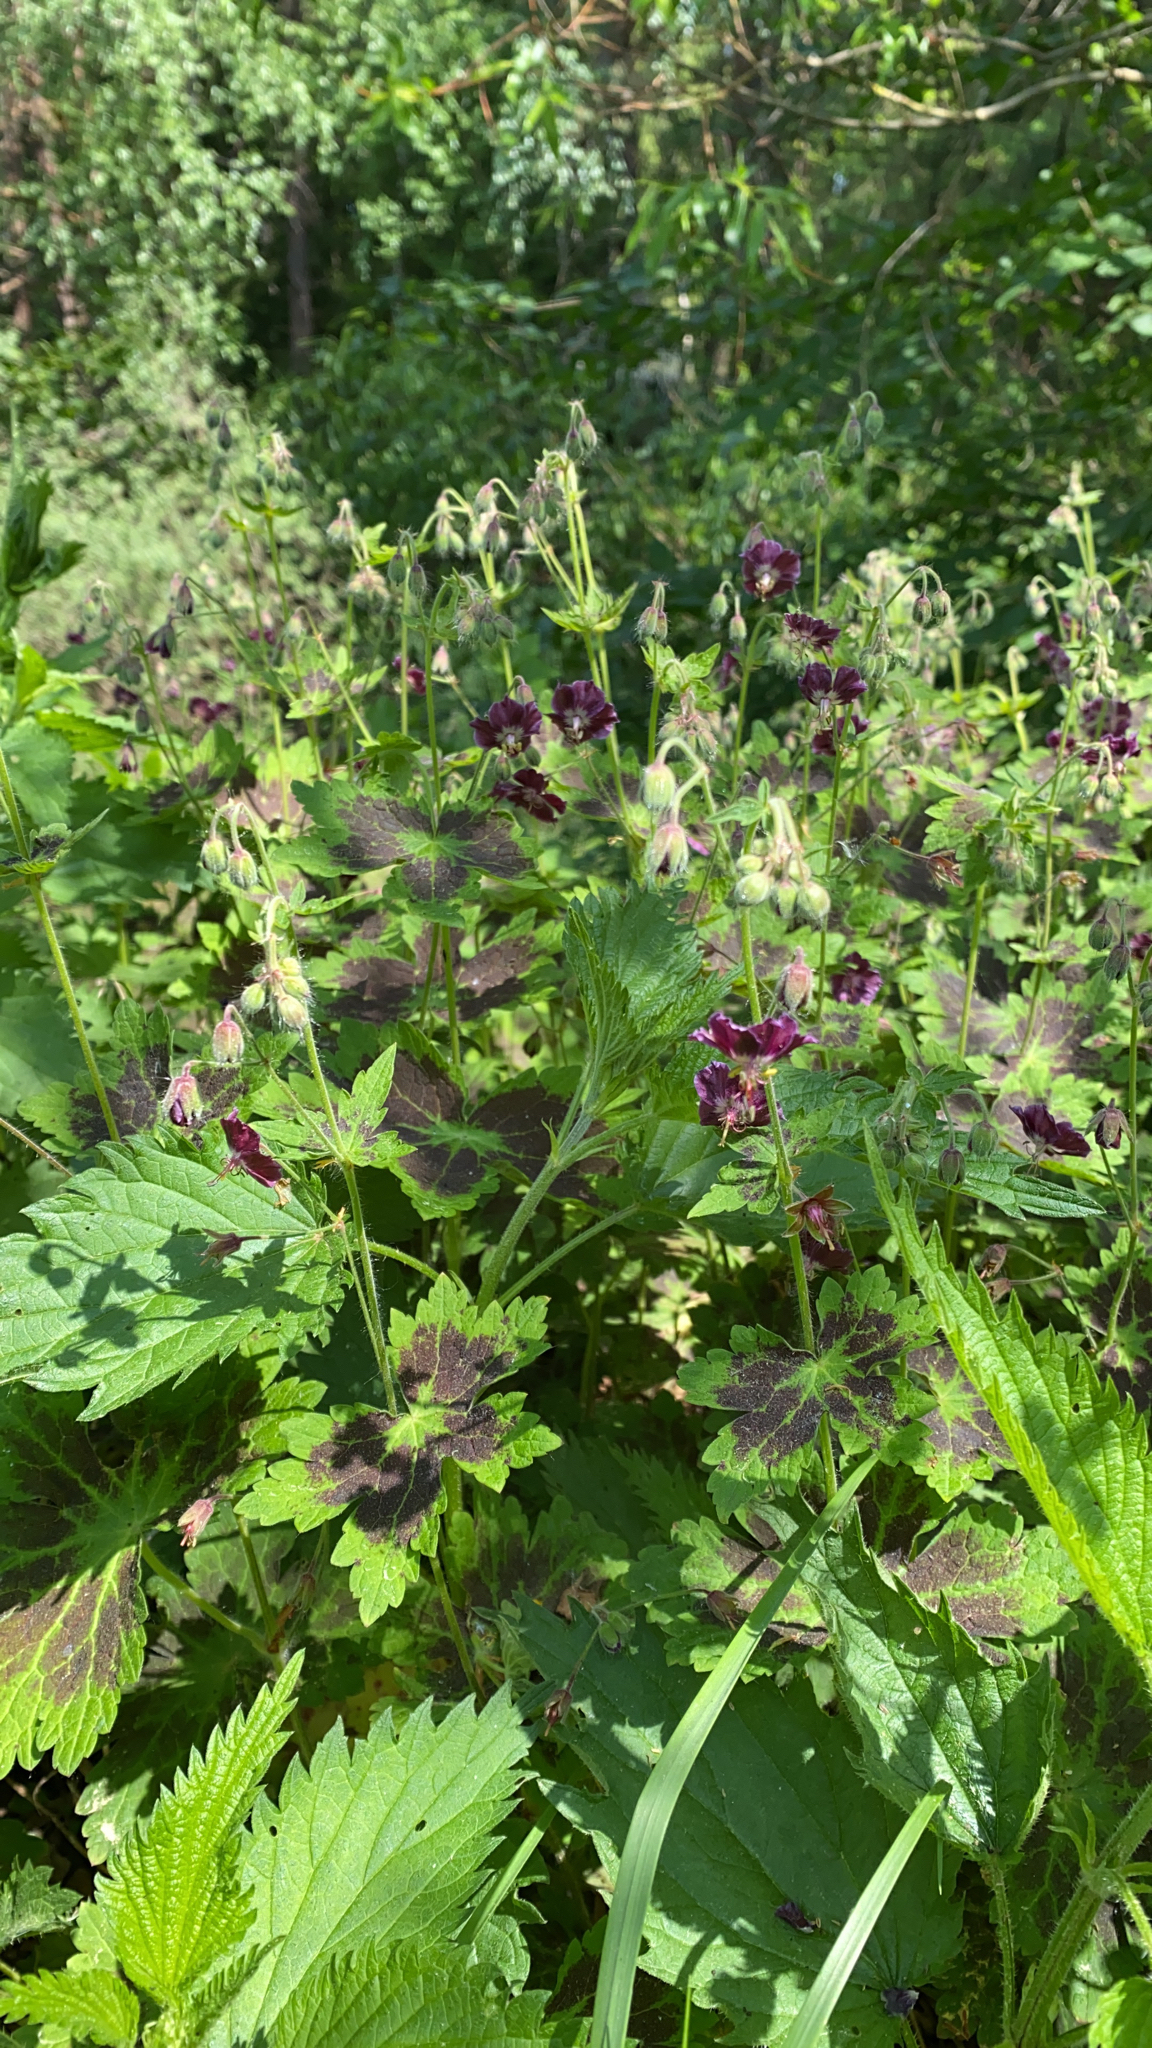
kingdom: Plantae
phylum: Tracheophyta
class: Magnoliopsida
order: Geraniales
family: Geraniaceae
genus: Geranium
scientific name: Geranium phaeum
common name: Dusky crane's-bill
